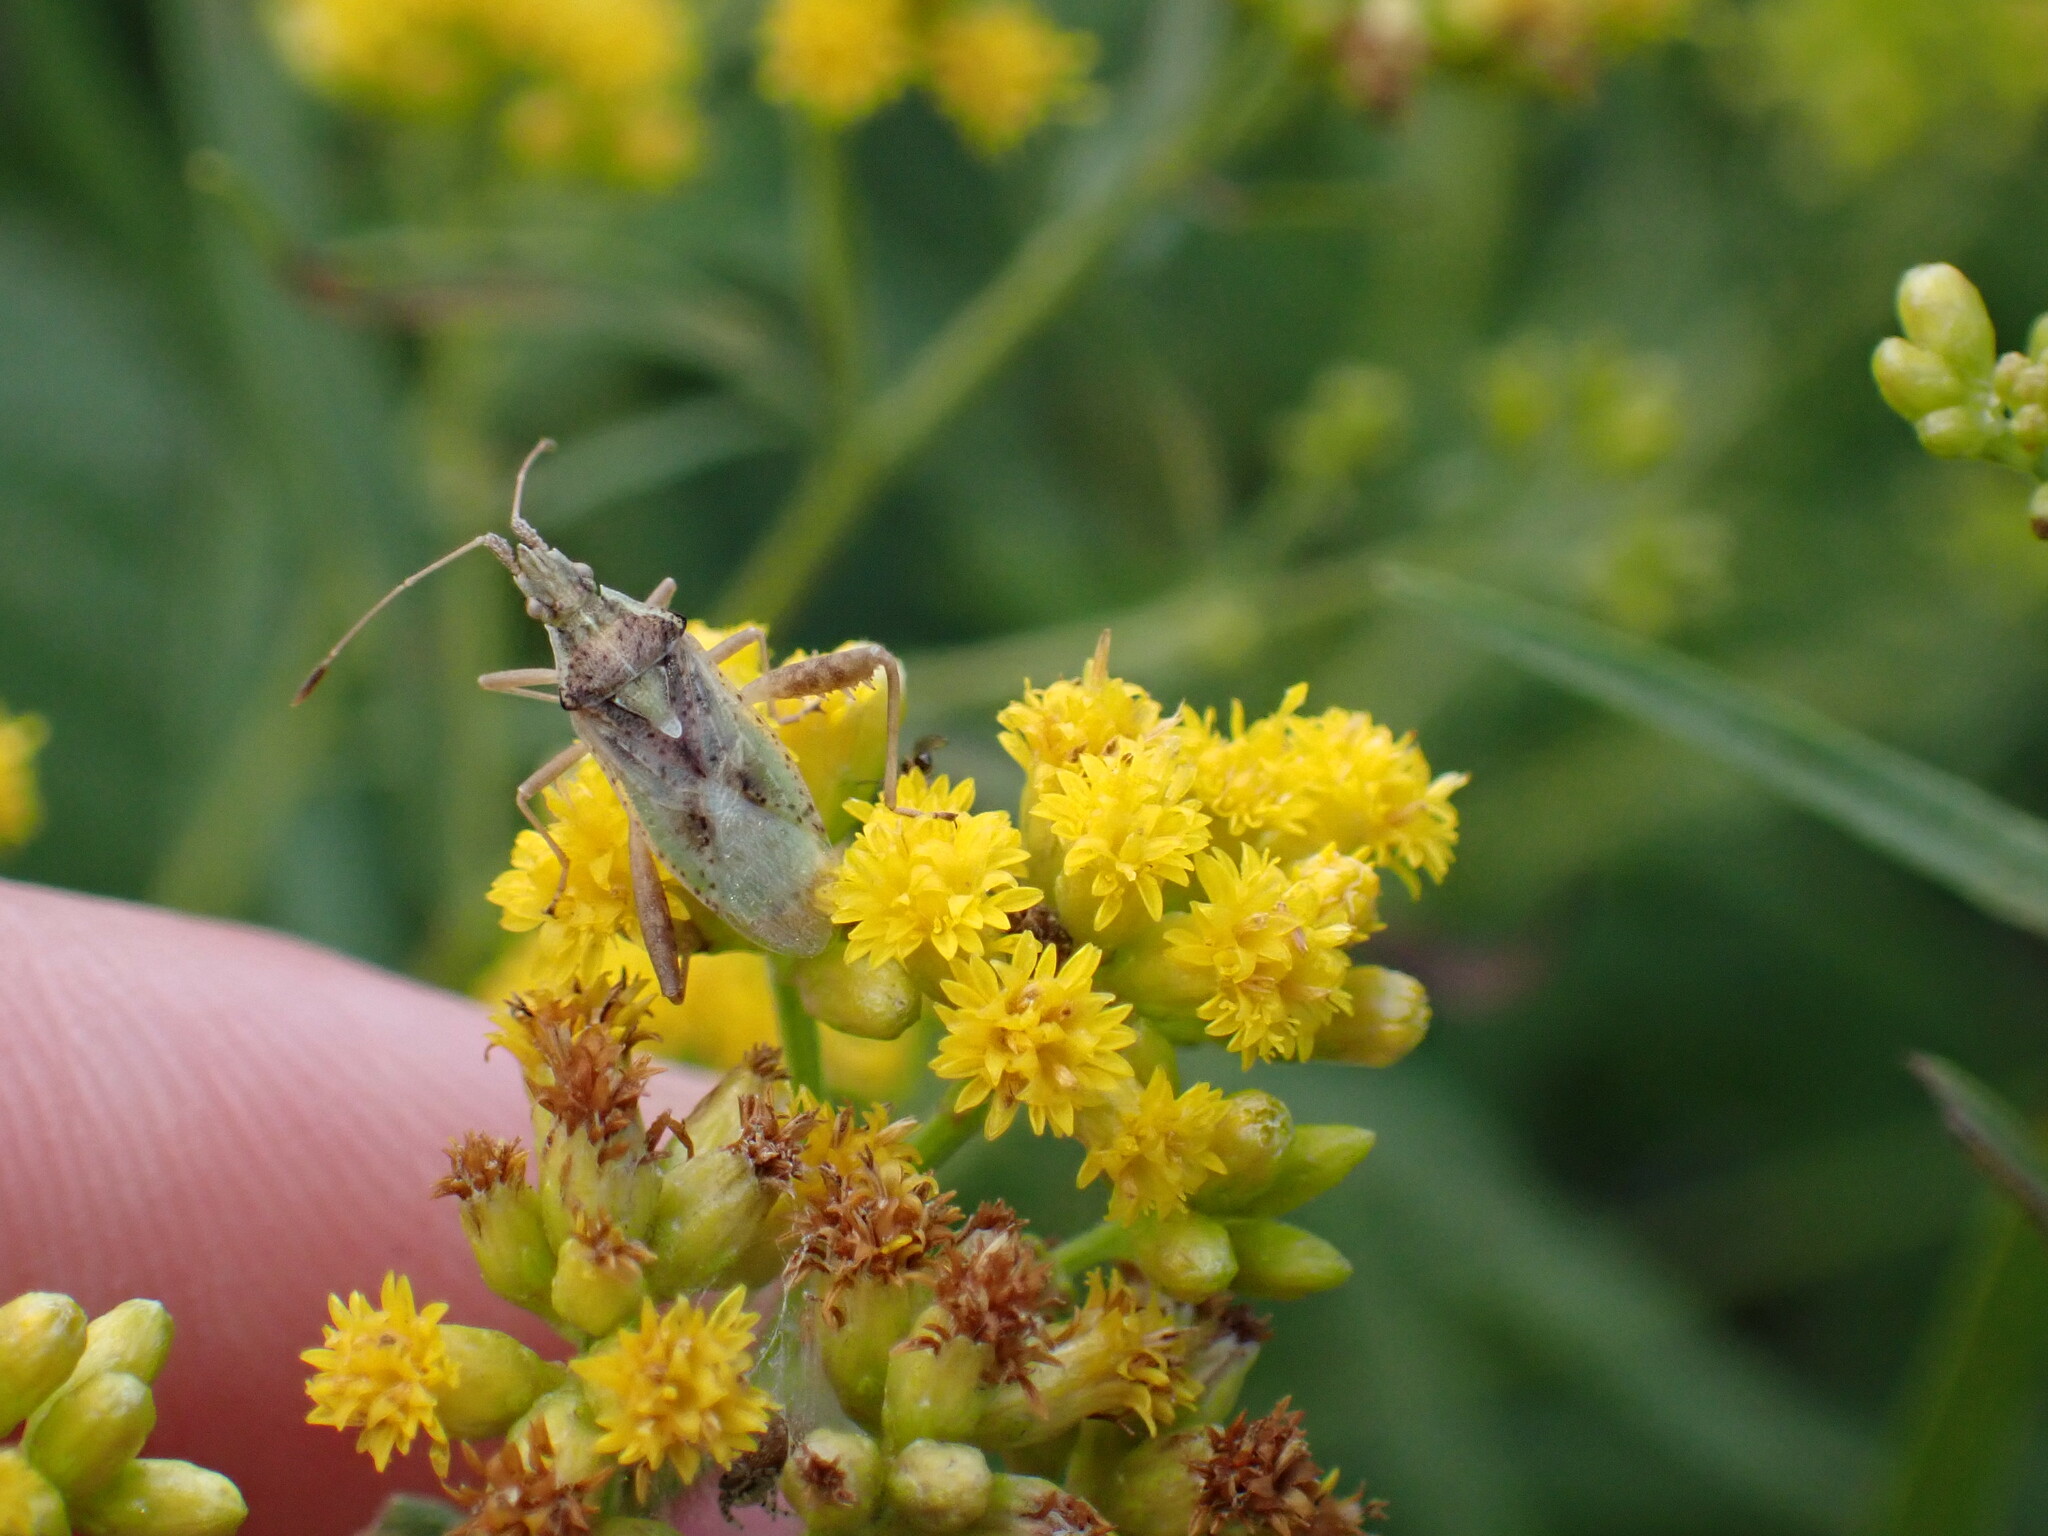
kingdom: Animalia
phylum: Arthropoda
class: Insecta
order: Hemiptera
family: Rhopalidae
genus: Harmostes
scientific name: Harmostes reflexulus
